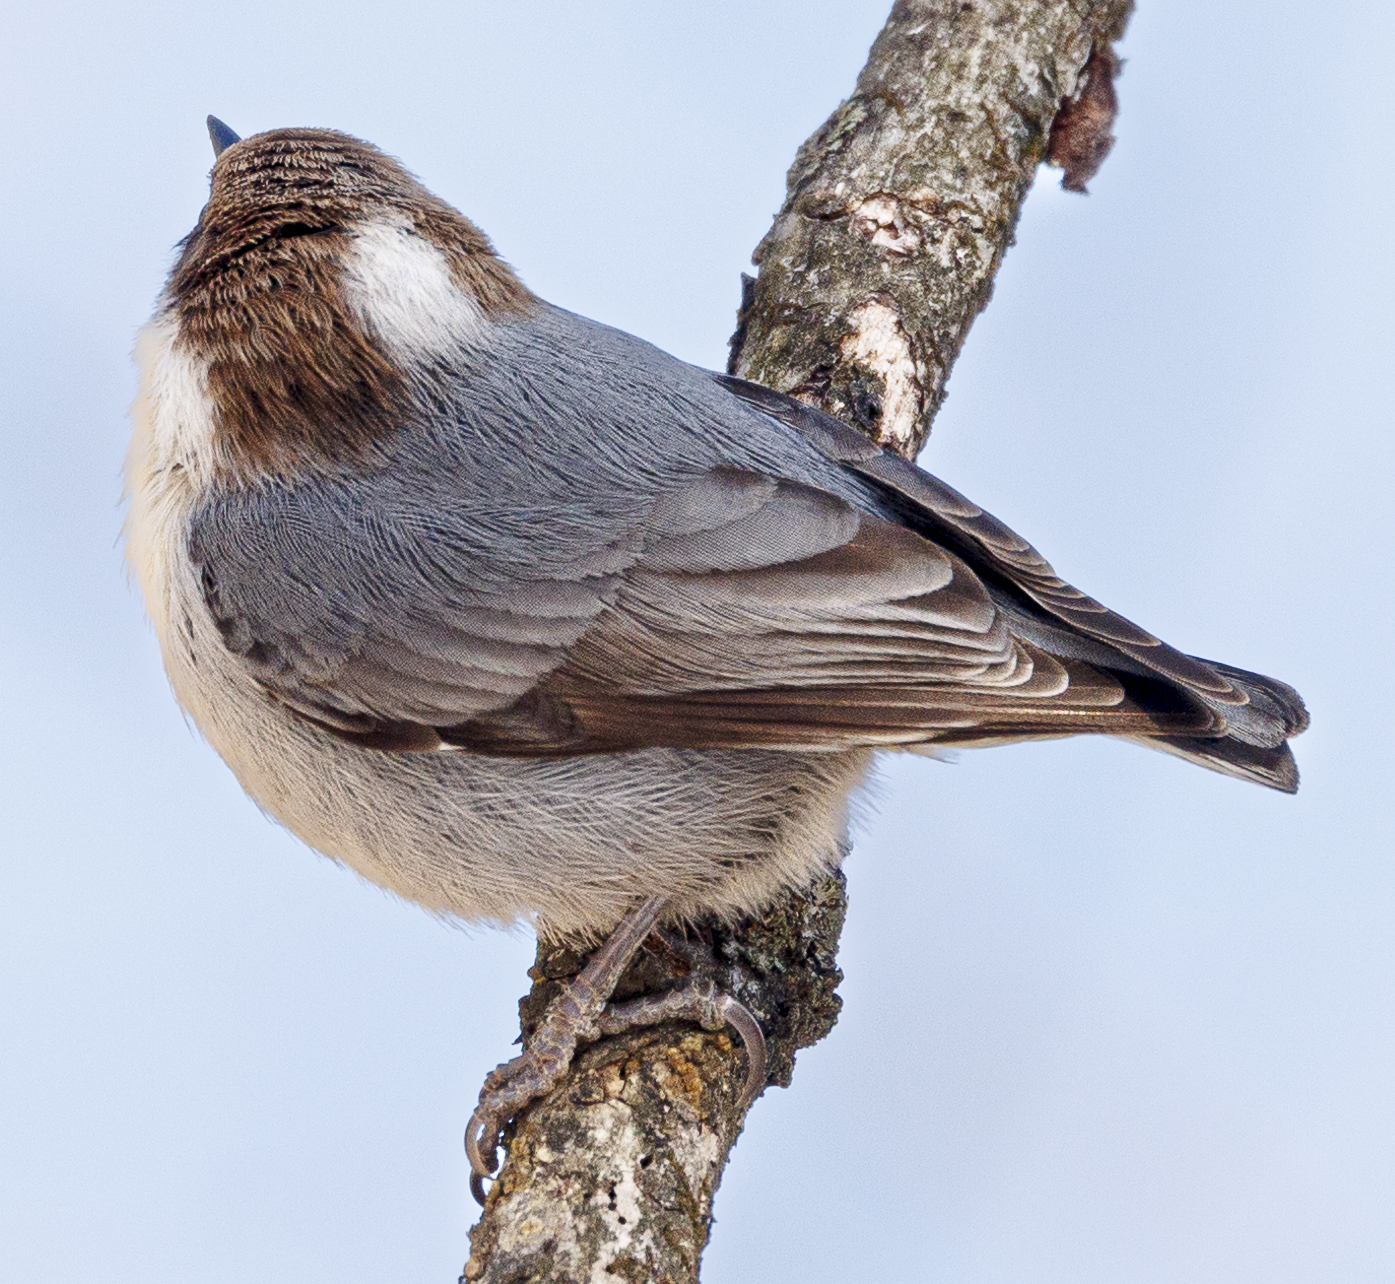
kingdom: Animalia
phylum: Chordata
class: Aves
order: Passeriformes
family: Sittidae
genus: Sitta
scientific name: Sitta pusilla
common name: Brown-headed nuthatch
